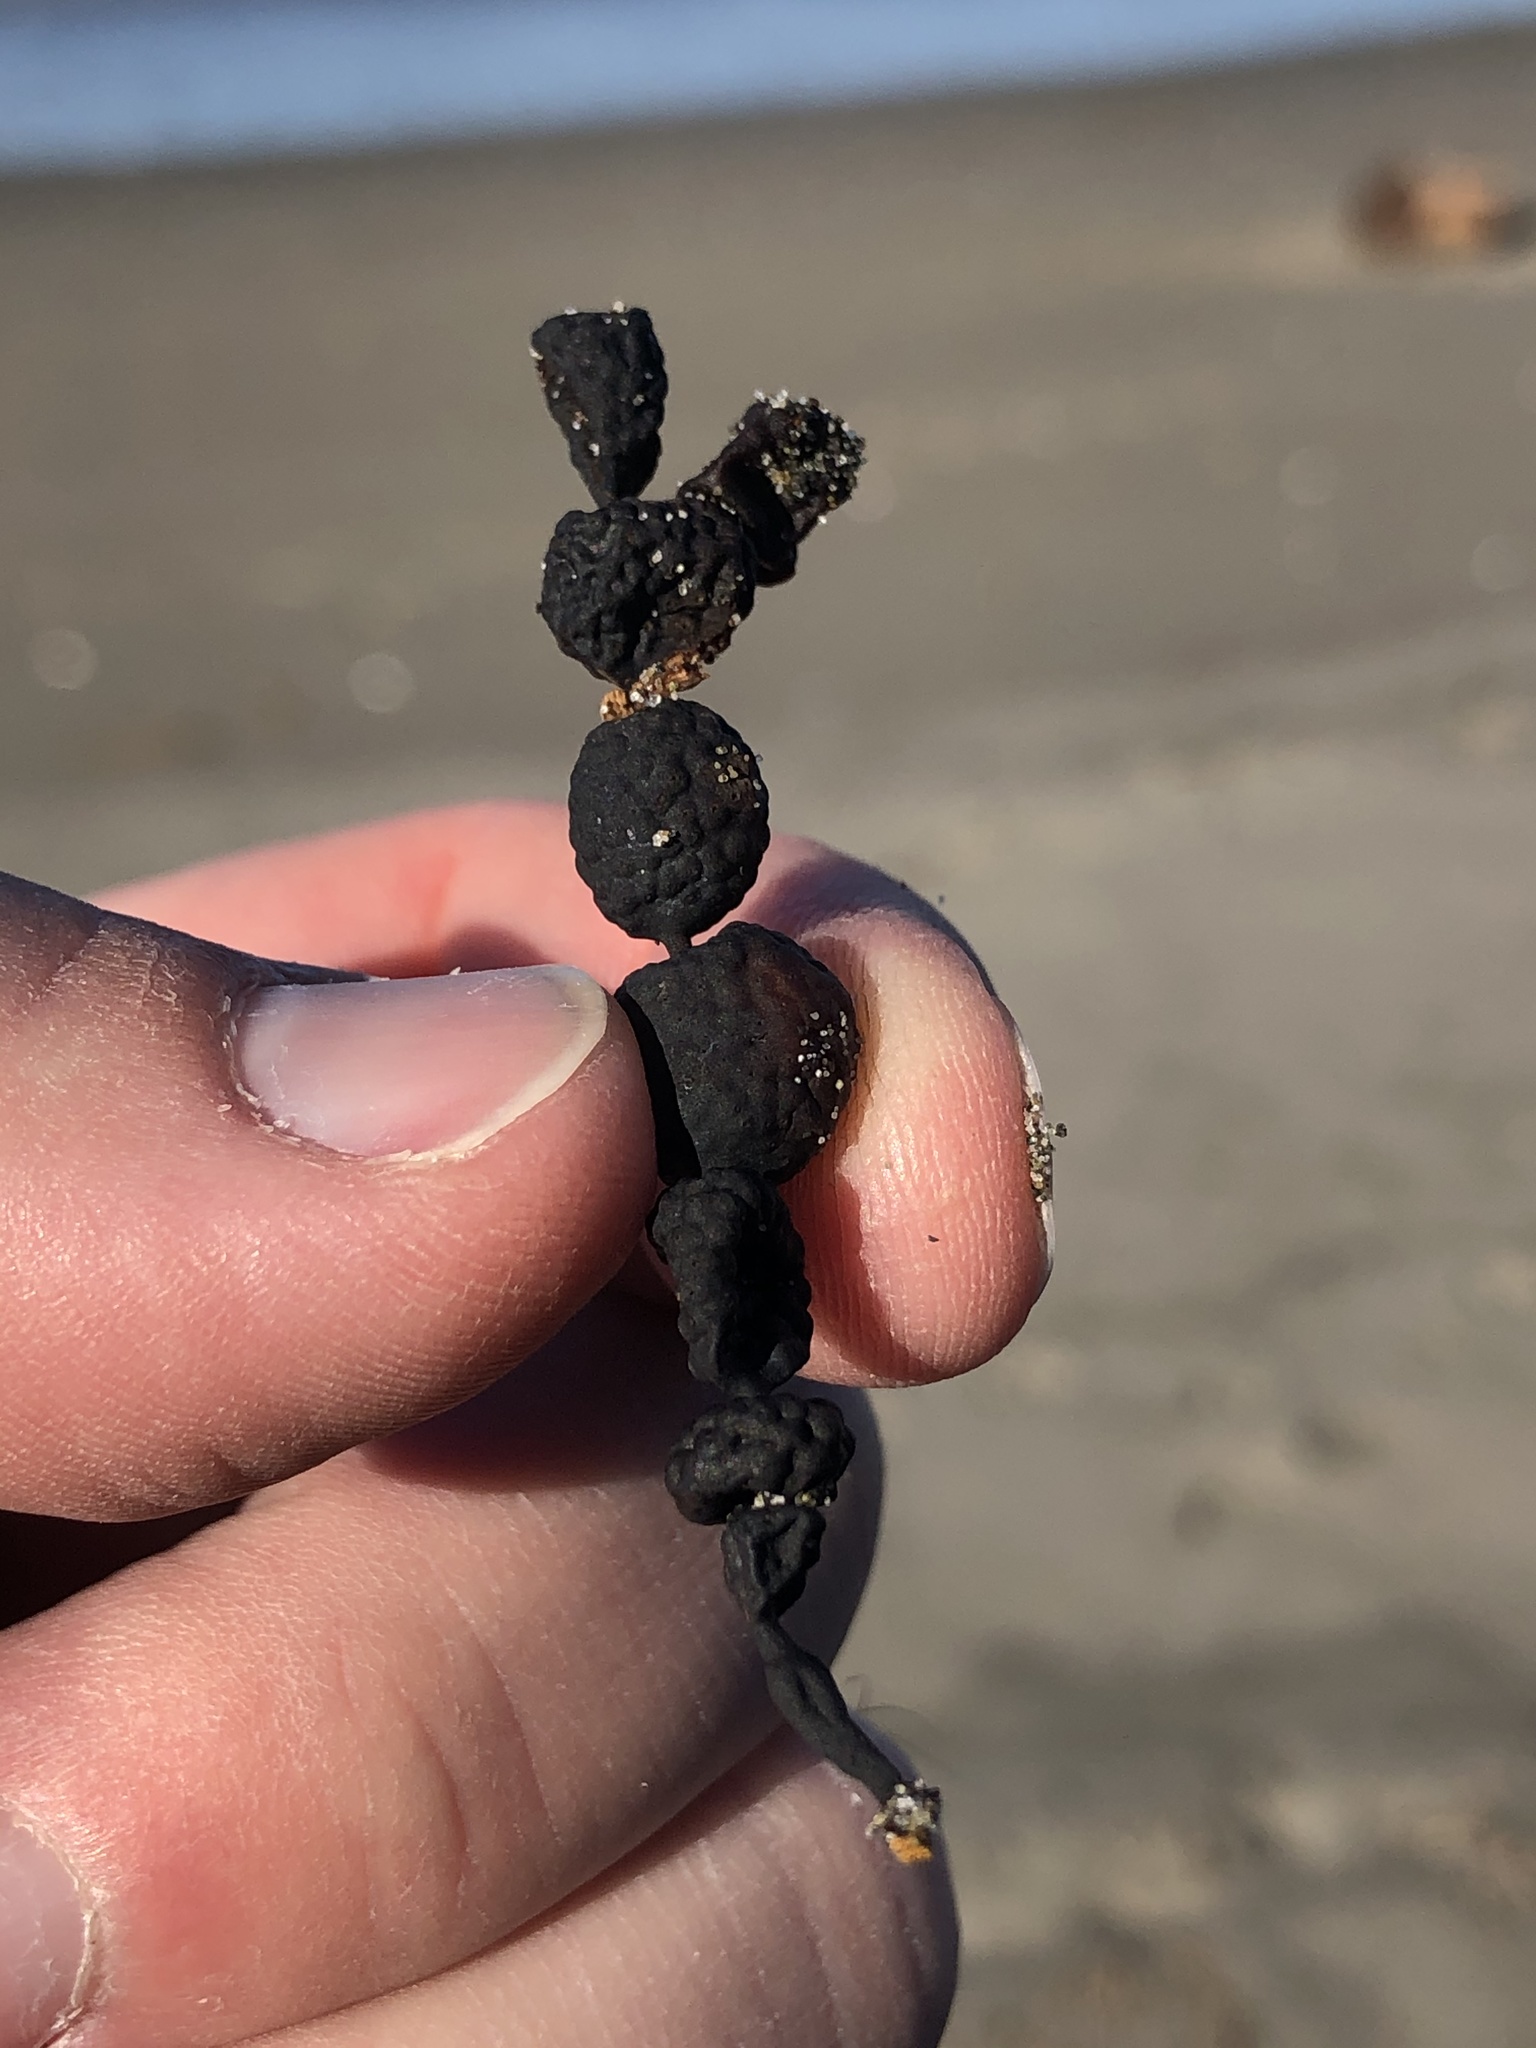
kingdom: Chromista
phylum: Ochrophyta
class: Phaeophyceae
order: Fucales
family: Hormosiraceae
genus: Hormosira
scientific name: Hormosira banksii
